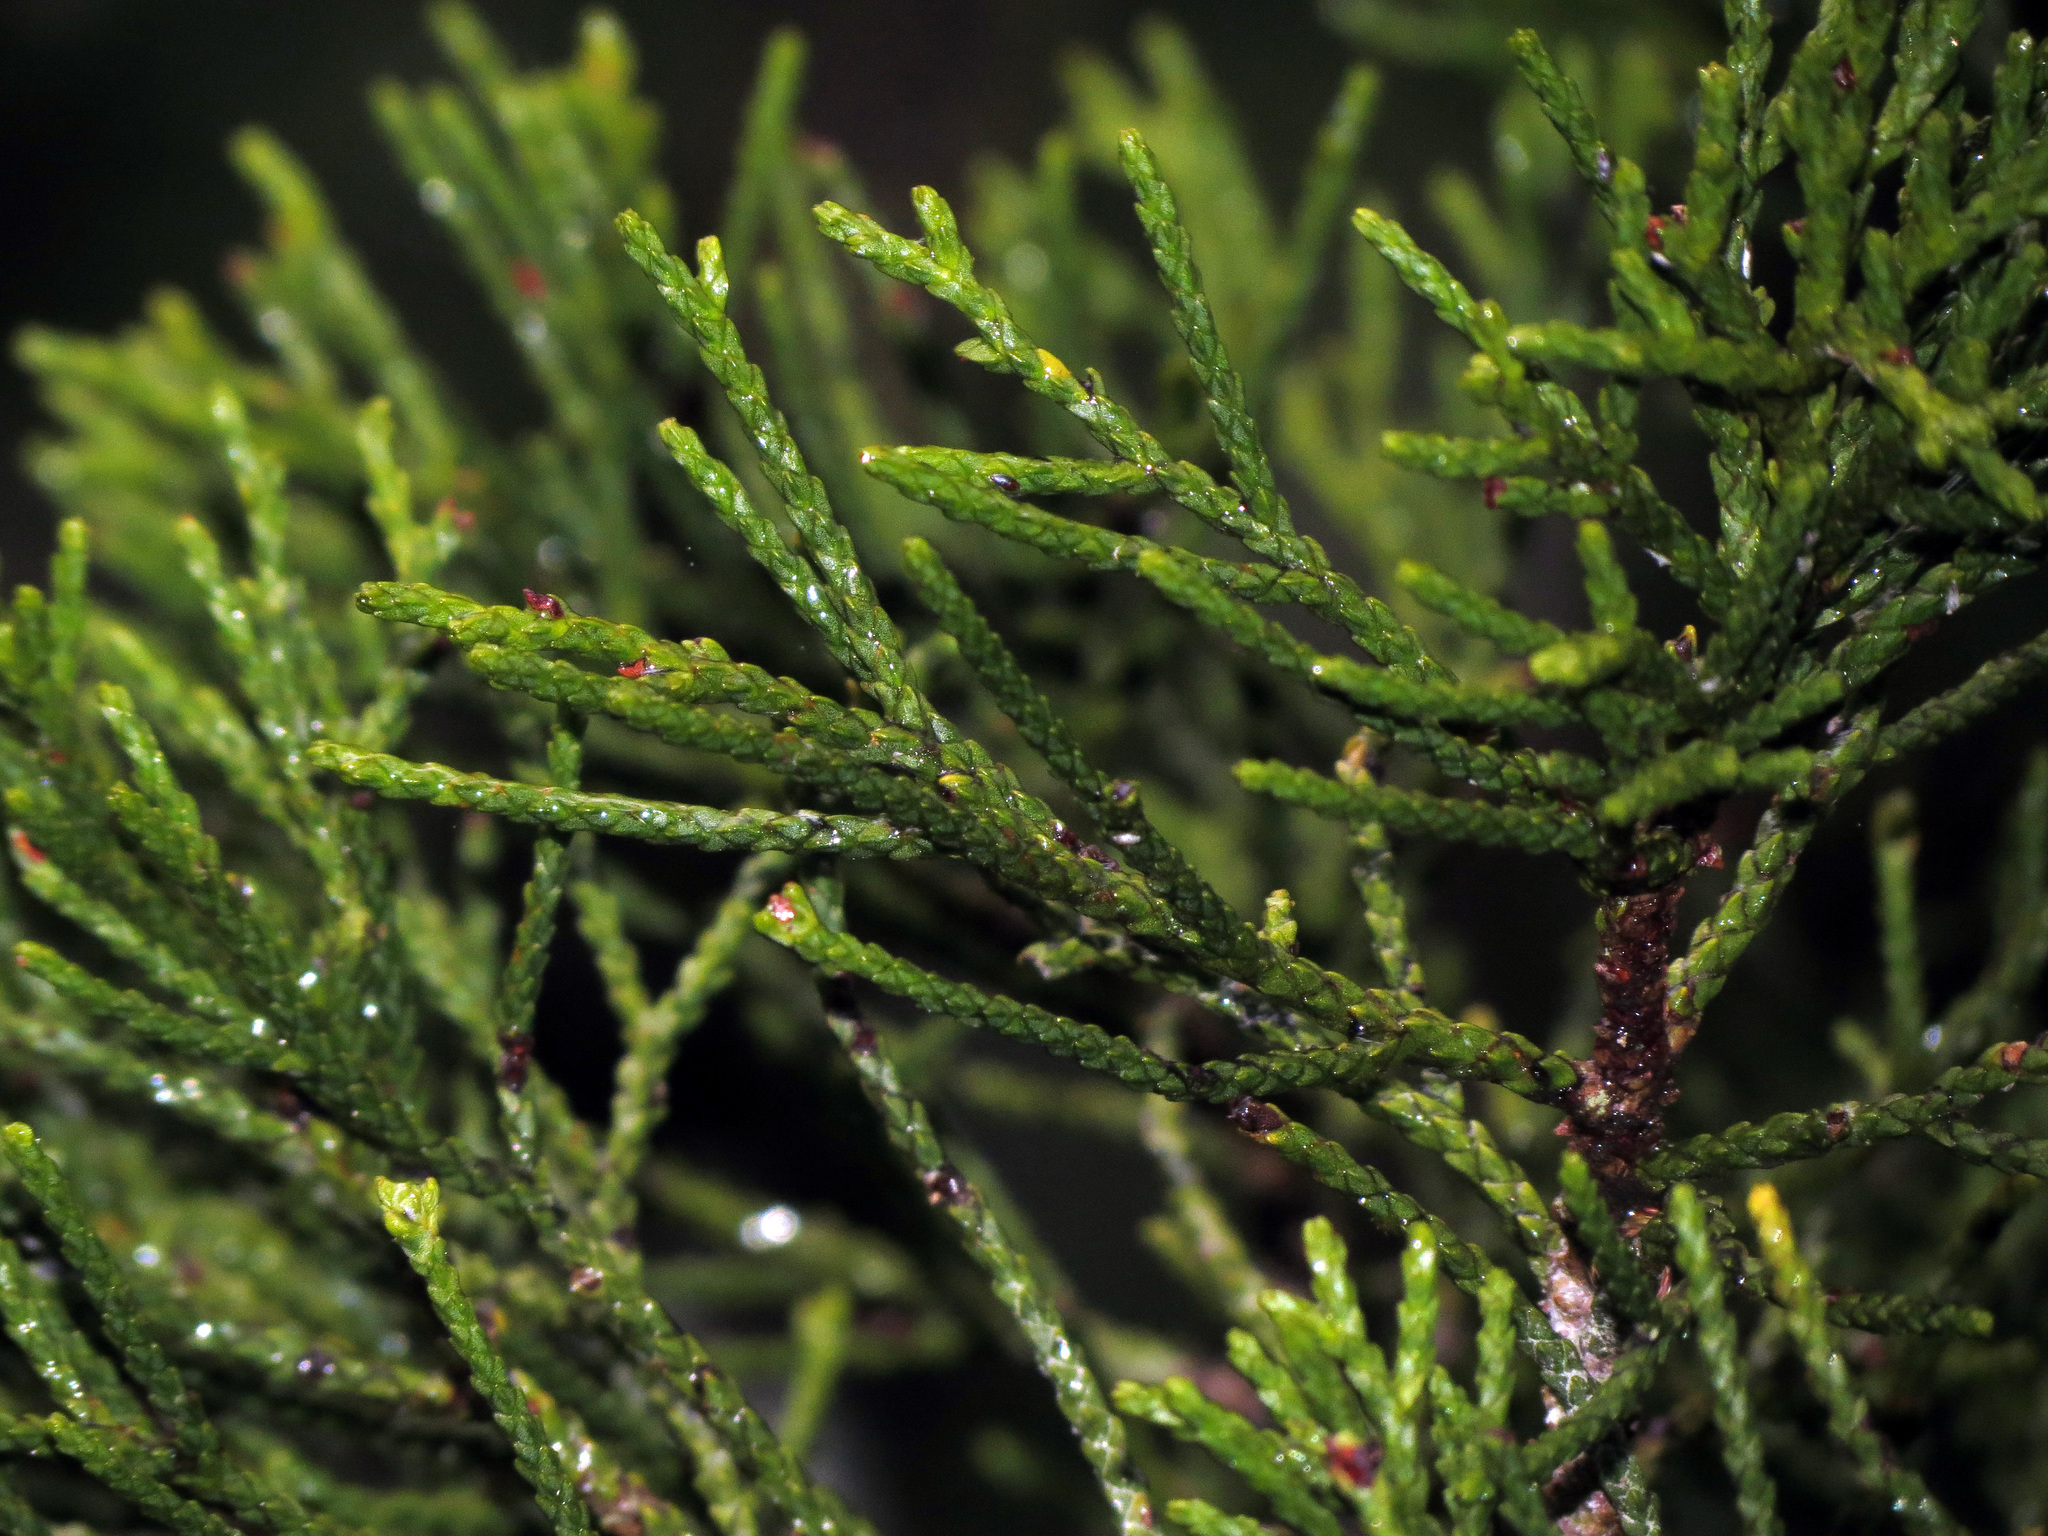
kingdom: Plantae
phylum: Tracheophyta
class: Pinopsida
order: Pinales
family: Podocarpaceae
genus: Halocarpus
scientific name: Halocarpus biformis
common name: Alpine tarwood
